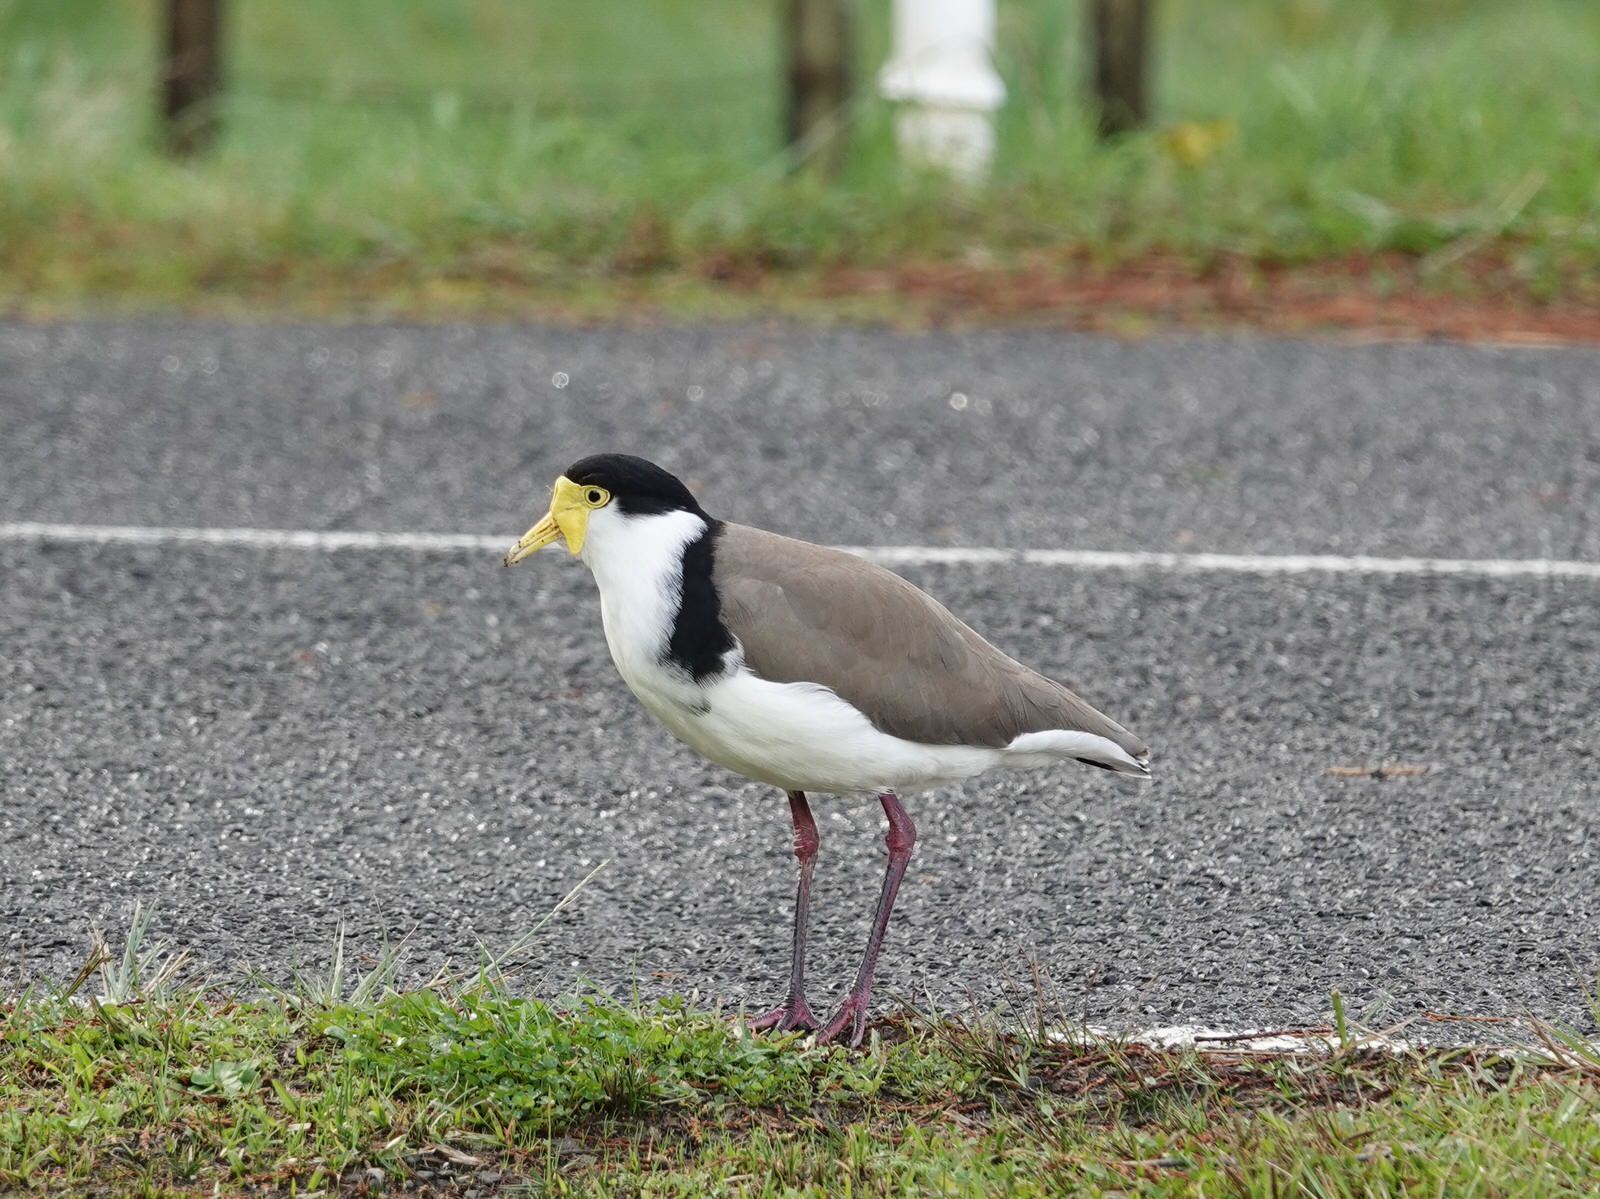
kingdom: Animalia
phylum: Chordata
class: Aves
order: Charadriiformes
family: Charadriidae
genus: Vanellus
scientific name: Vanellus miles
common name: Masked lapwing
